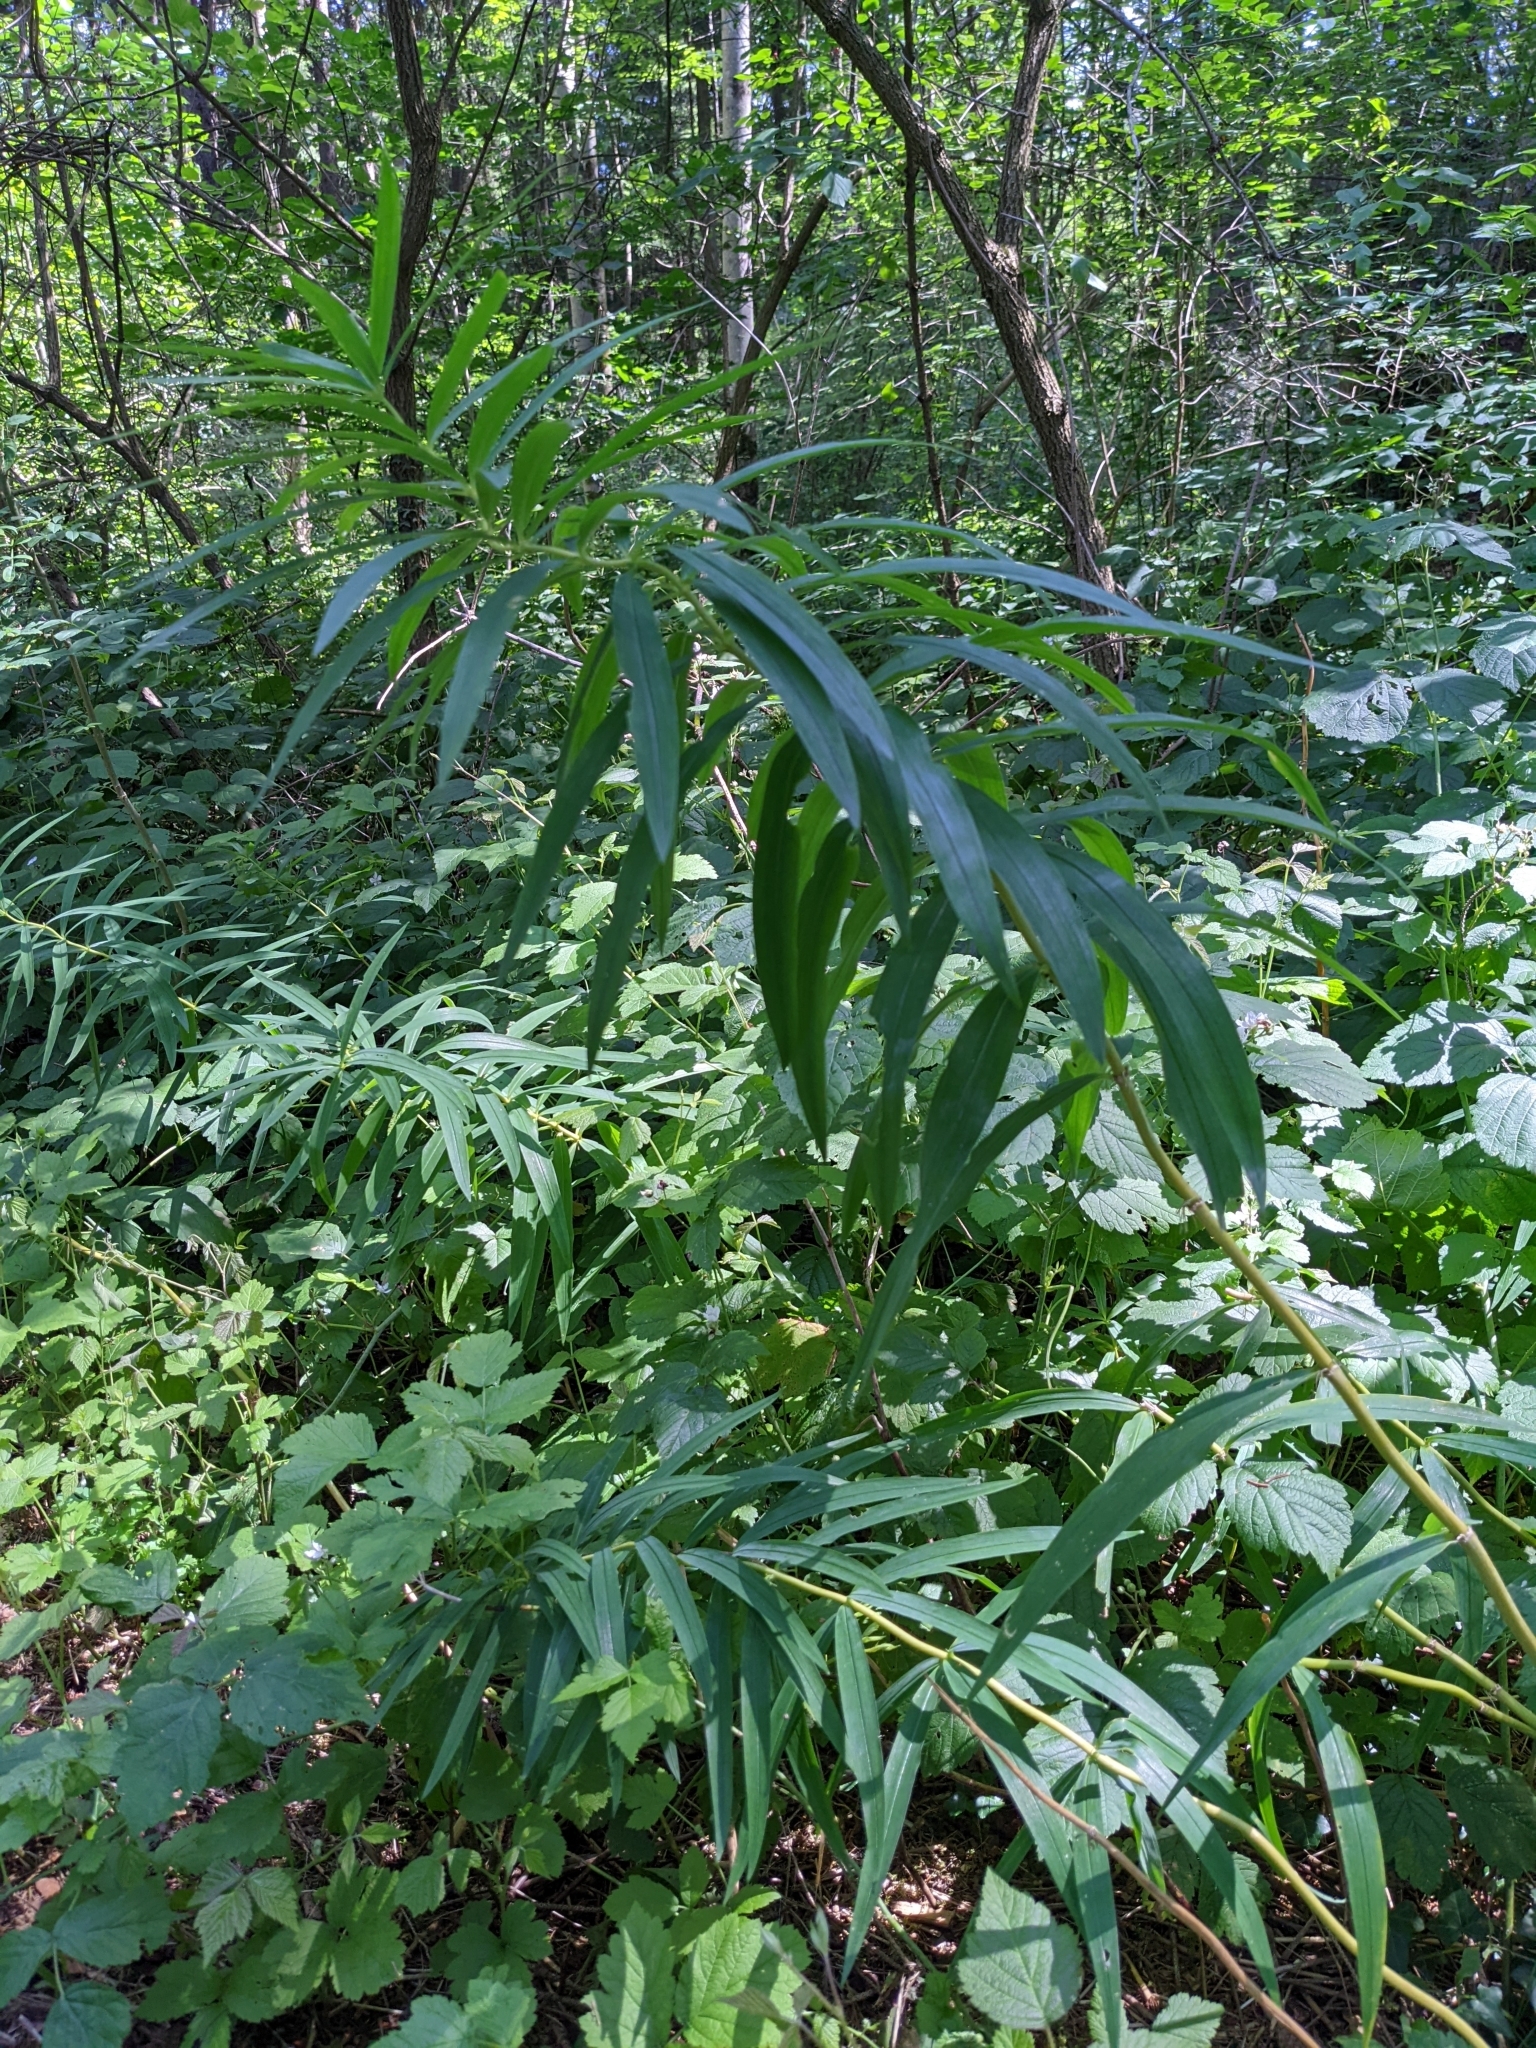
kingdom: Plantae
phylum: Tracheophyta
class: Liliopsida
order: Asparagales
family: Asparagaceae
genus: Polygonatum
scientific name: Polygonatum verticillatum
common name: Whorled solomon's-seal
